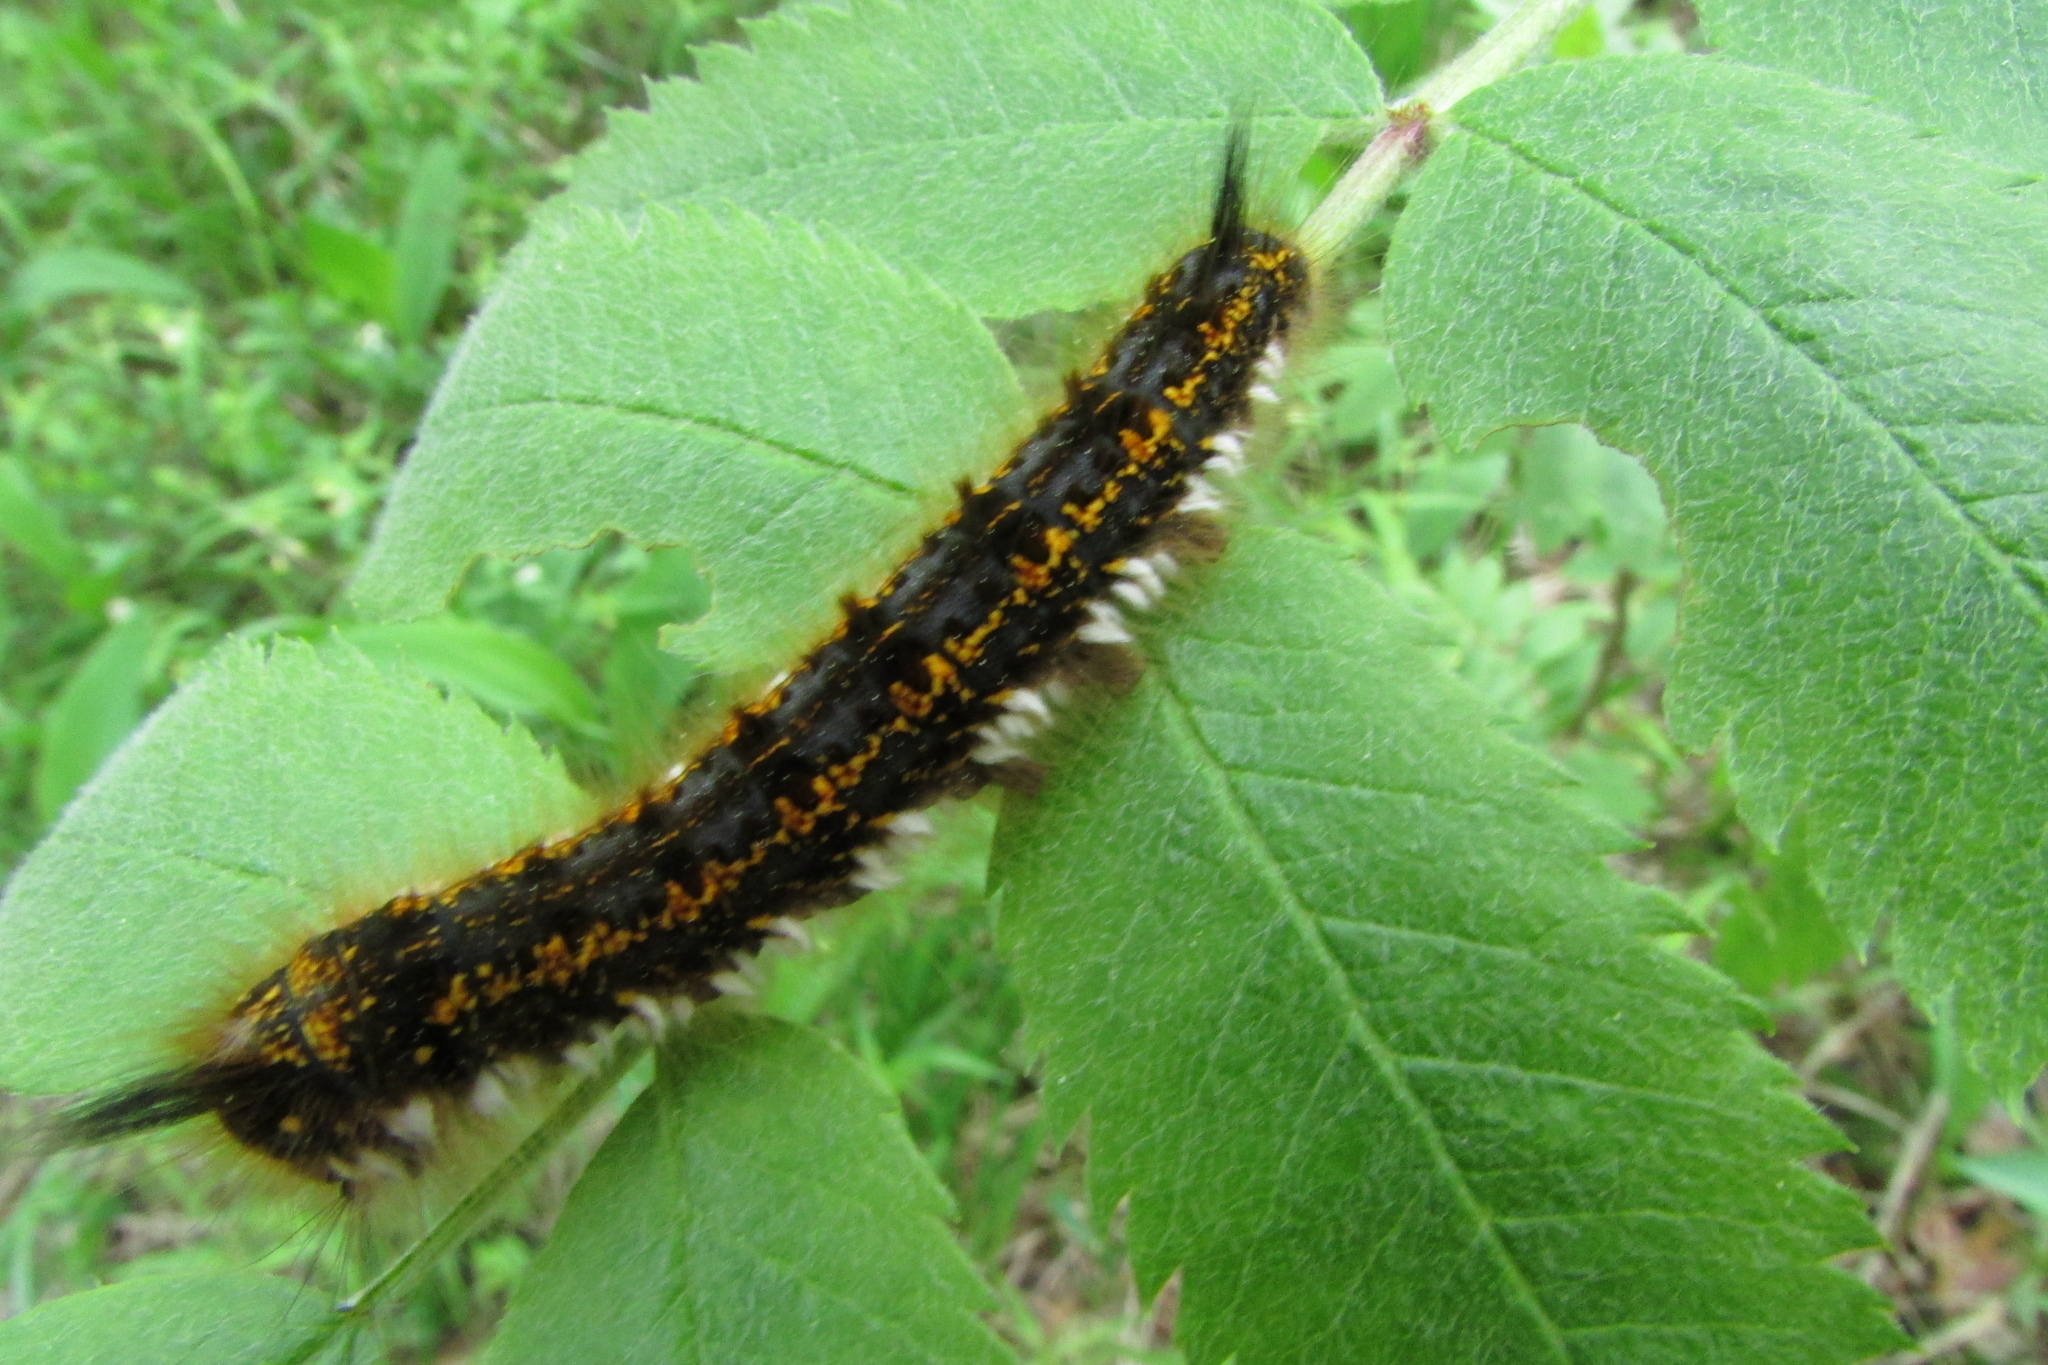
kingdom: Animalia
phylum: Arthropoda
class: Insecta
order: Lepidoptera
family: Lasiocampidae
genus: Euthrix
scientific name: Euthrix potatoria
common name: Drinker
